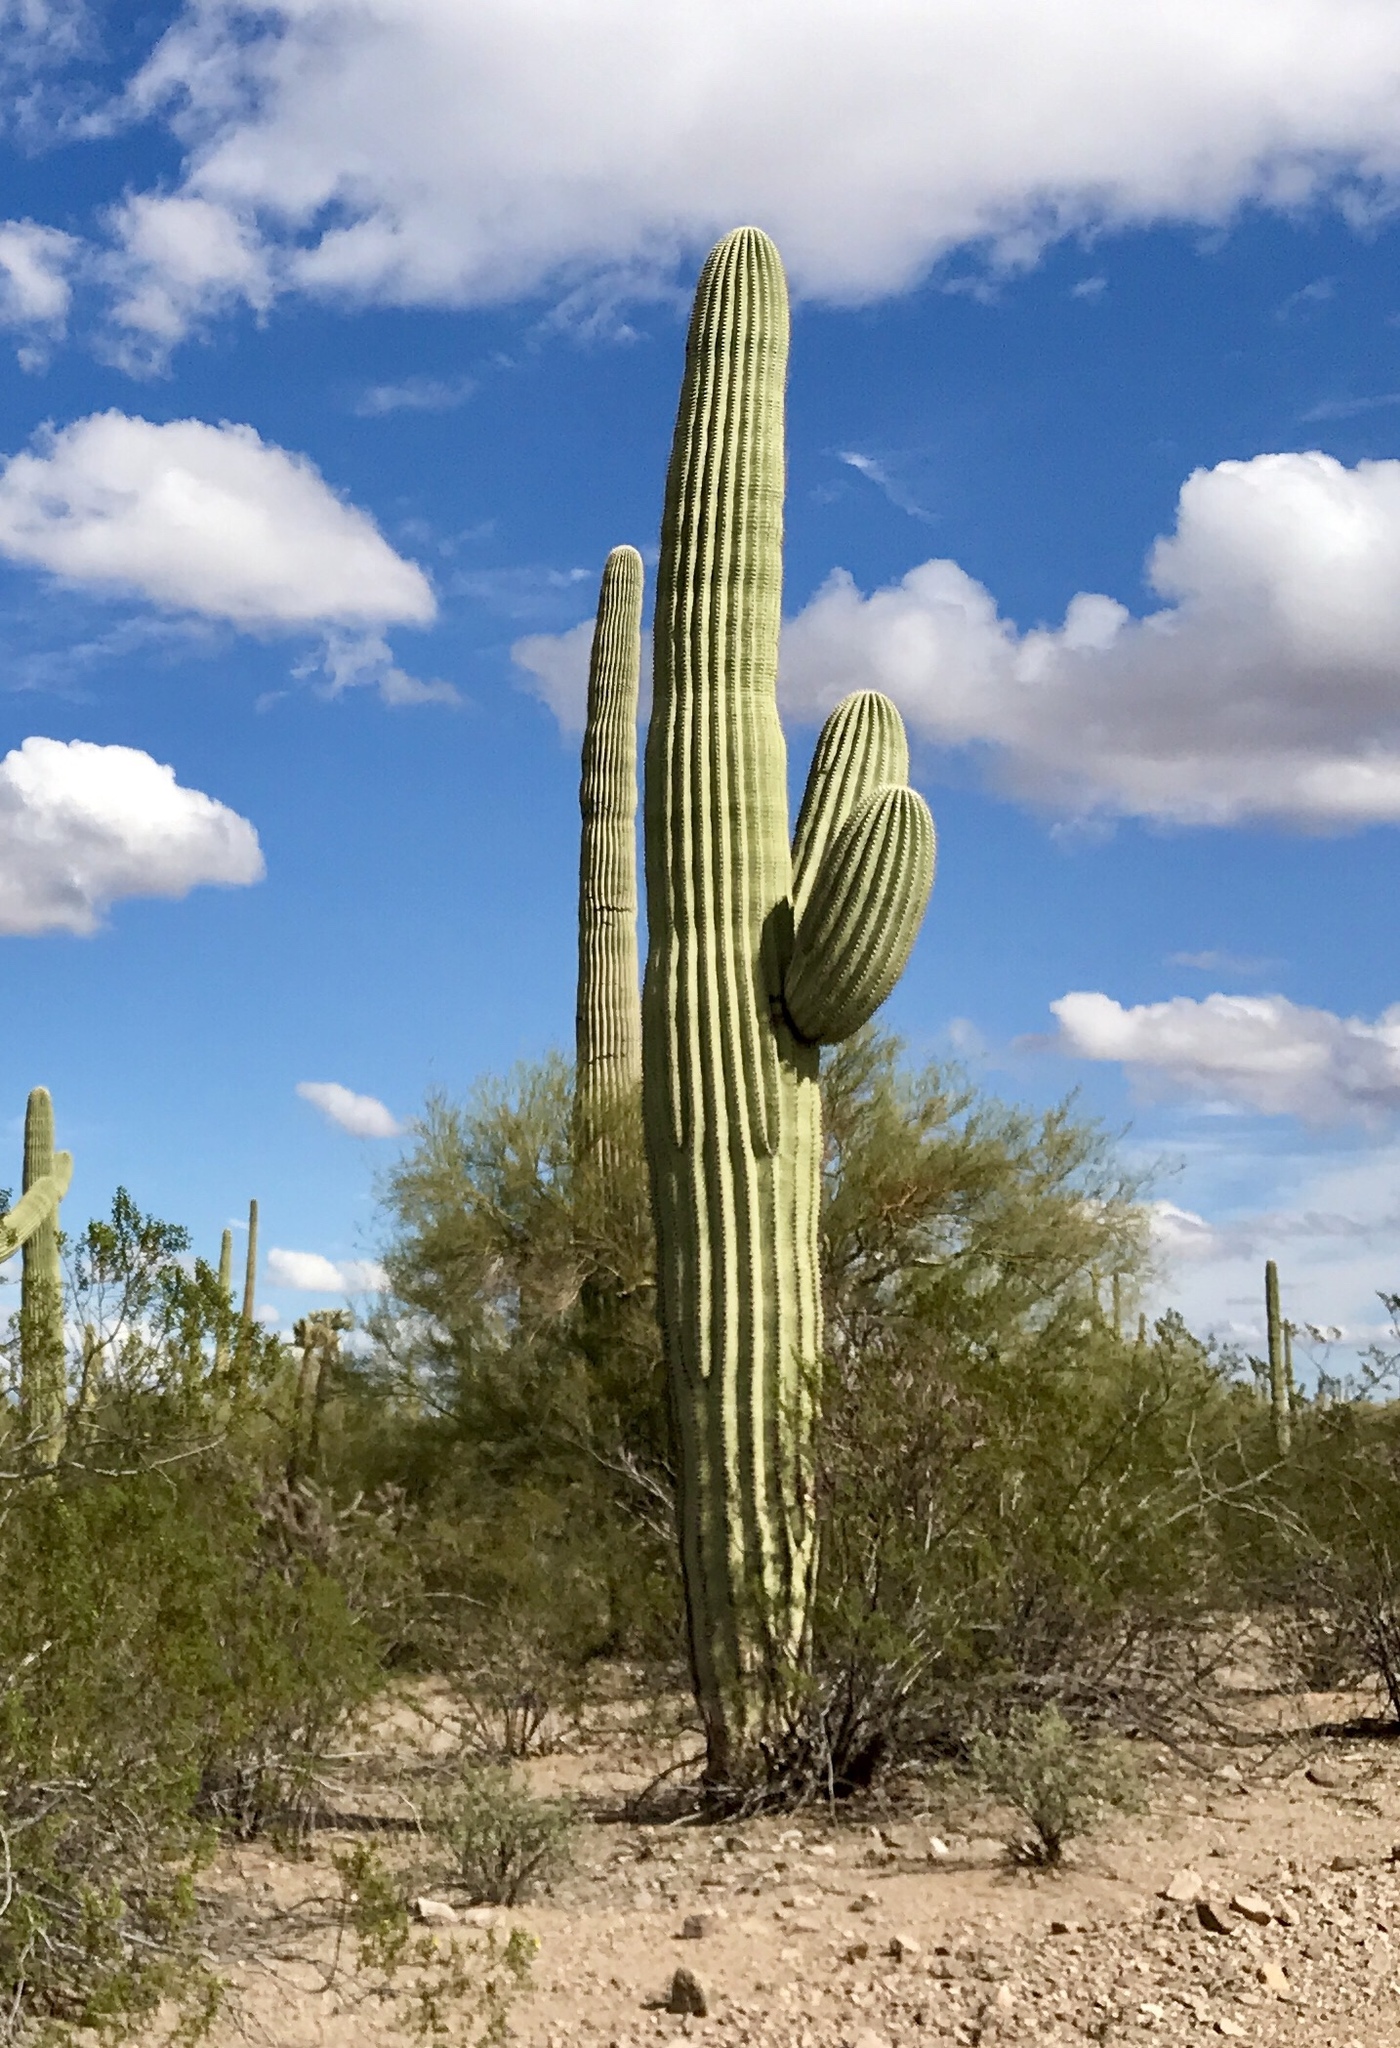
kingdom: Plantae
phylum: Tracheophyta
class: Magnoliopsida
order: Caryophyllales
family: Cactaceae
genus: Carnegiea
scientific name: Carnegiea gigantea
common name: Saguaro
